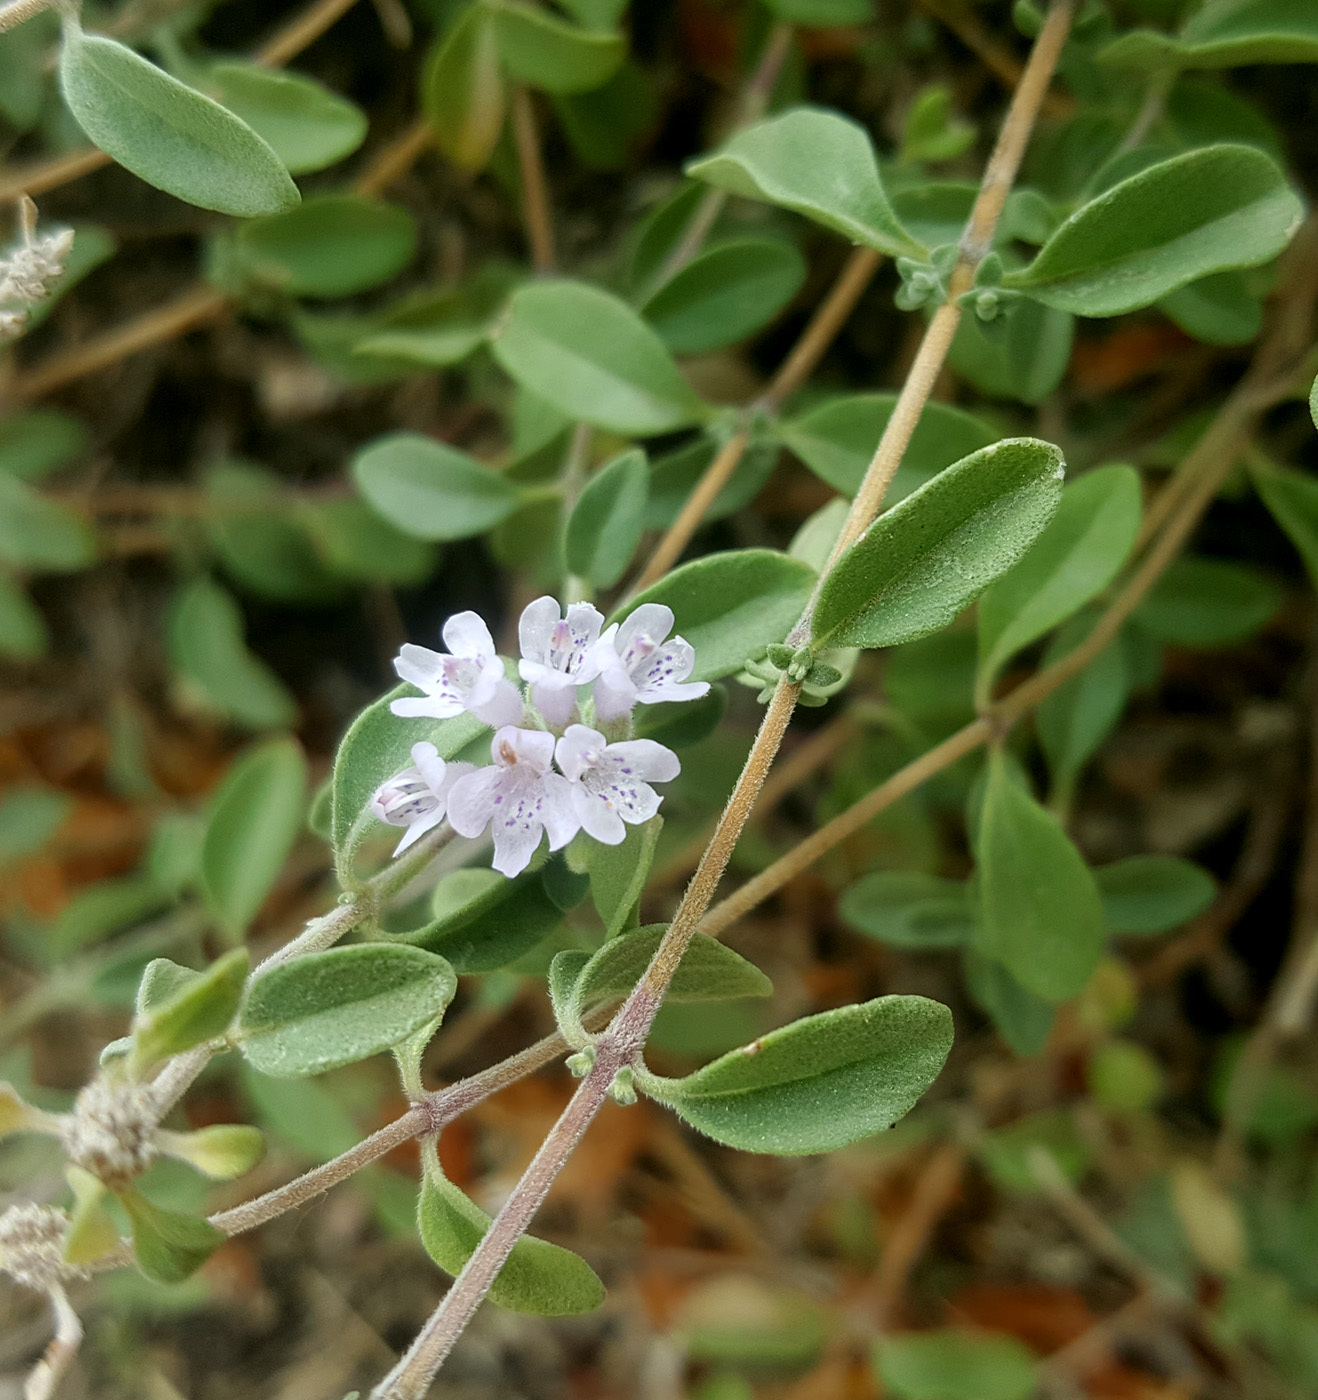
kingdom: Plantae
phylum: Tracheophyta
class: Magnoliopsida
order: Lamiales
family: Lamiaceae
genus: Ziziphora
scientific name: Ziziphora clinopodioides
